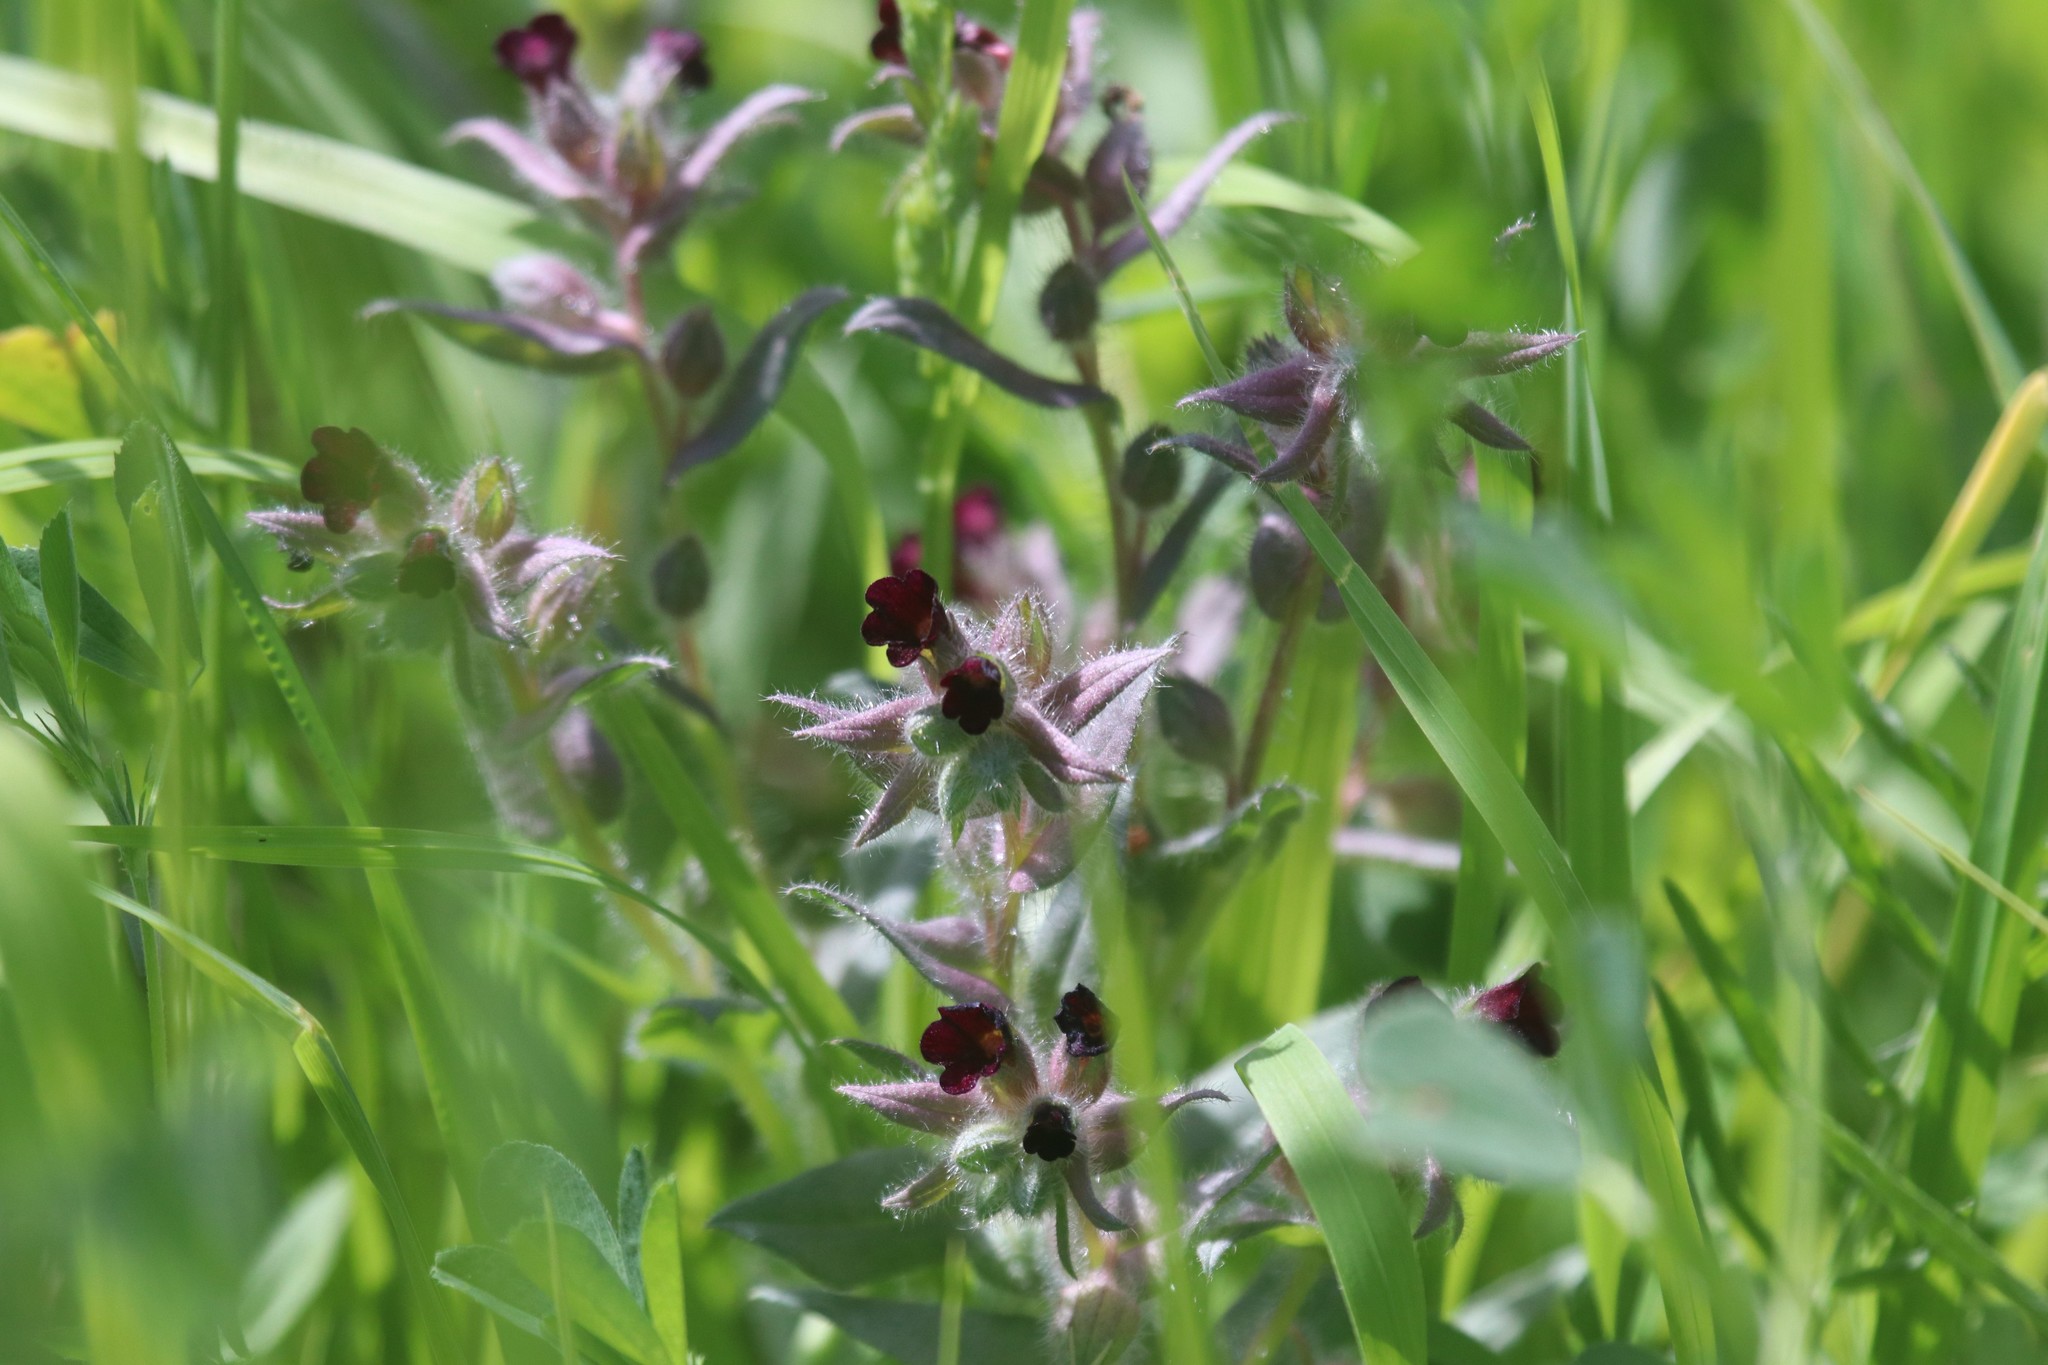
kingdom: Plantae
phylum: Tracheophyta
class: Magnoliopsida
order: Boraginales
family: Boraginaceae
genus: Nonea
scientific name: Nonea pulla
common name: Brown nonea
